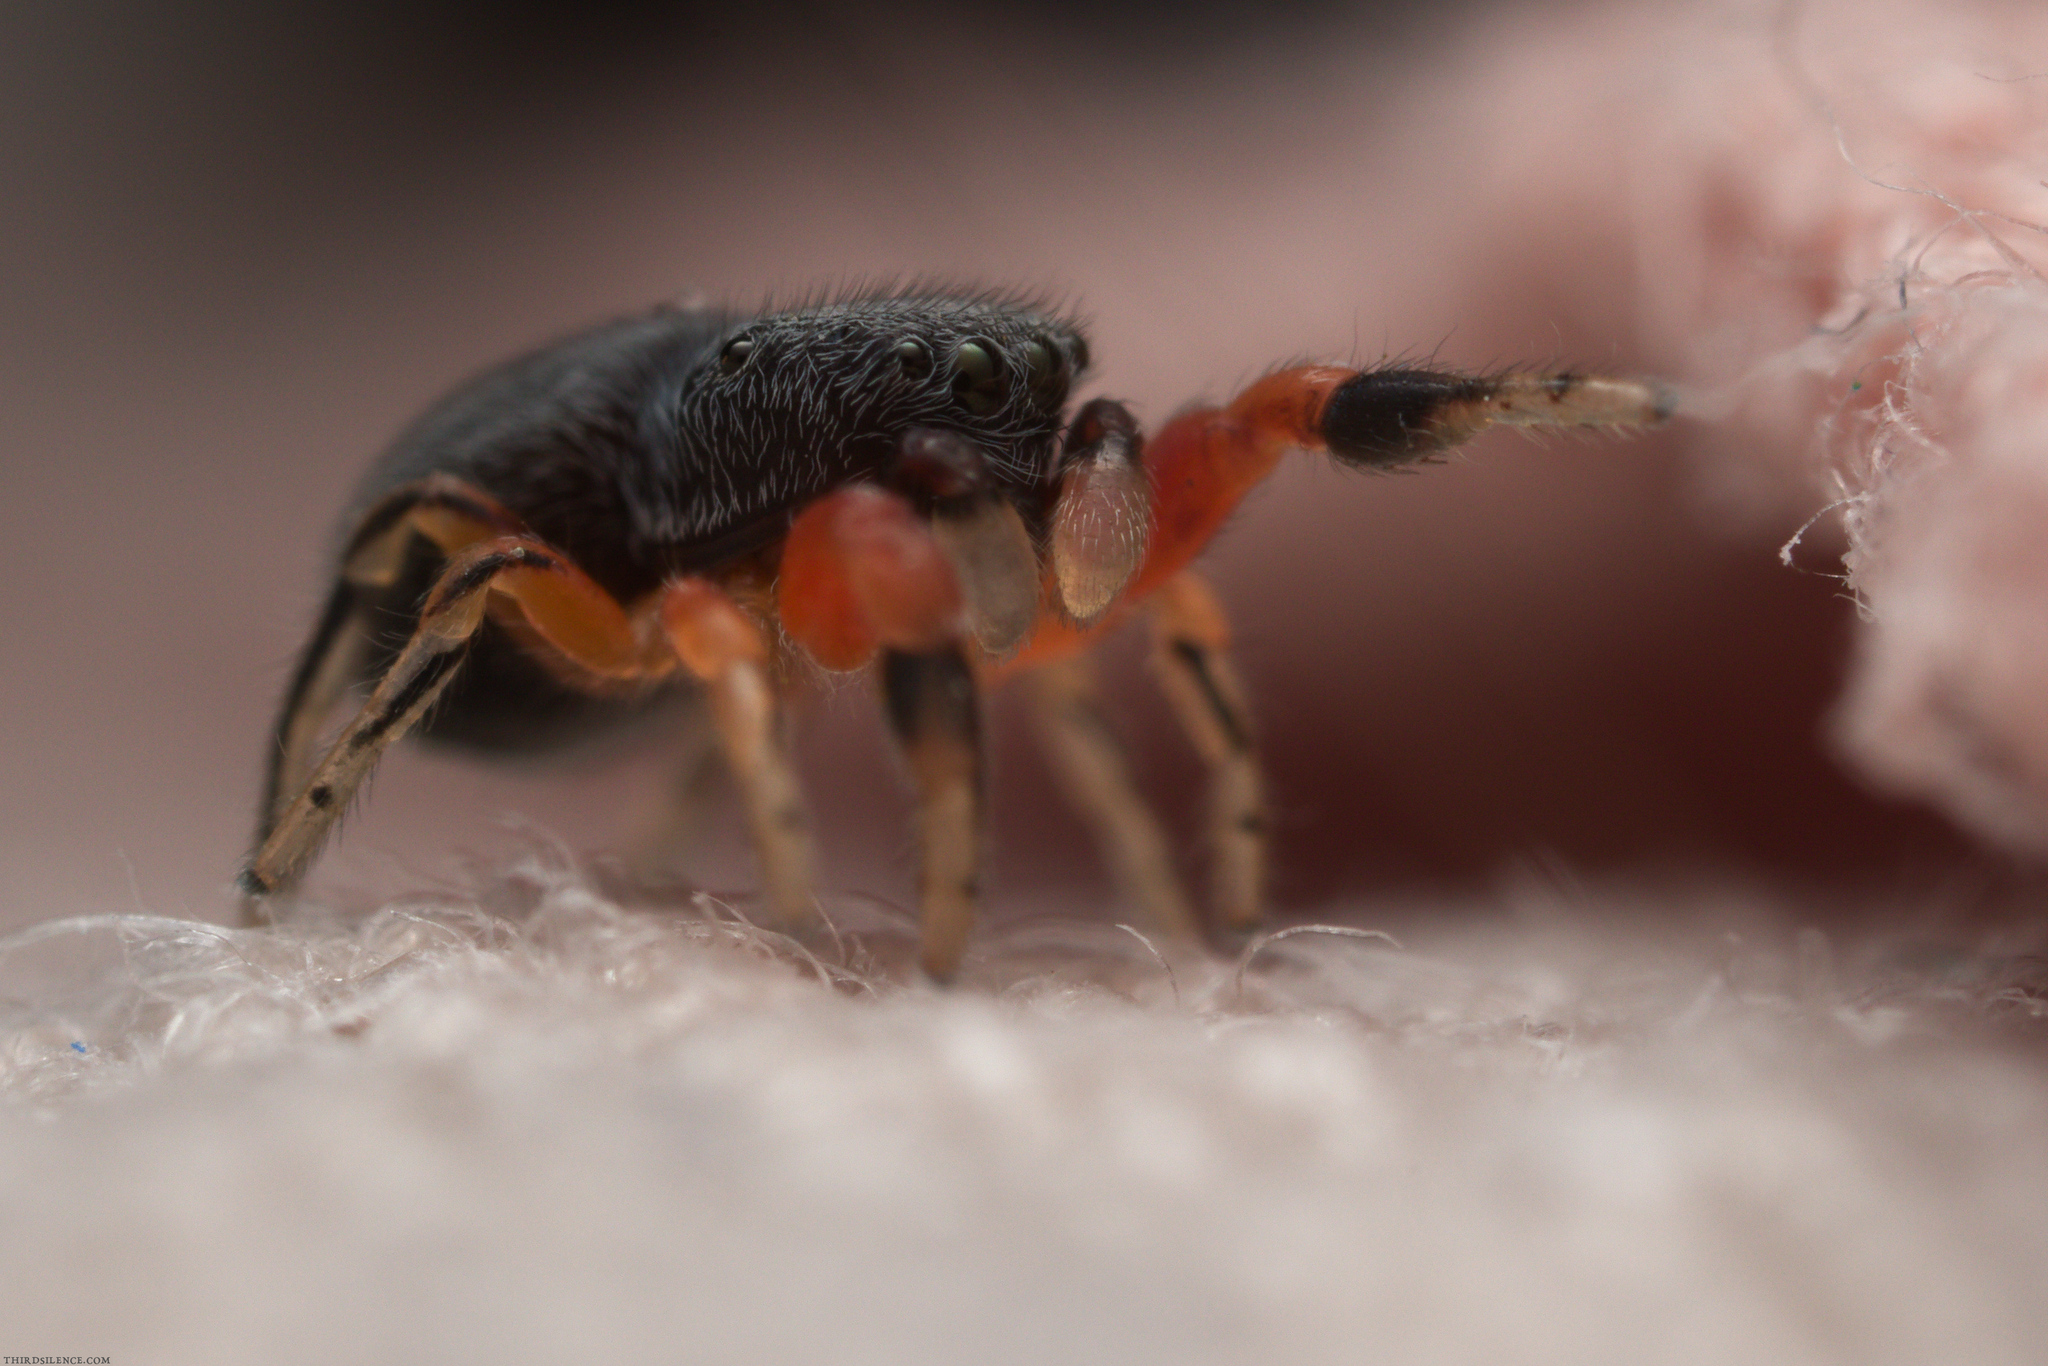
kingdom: Animalia
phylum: Arthropoda
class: Arachnida
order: Araneae
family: Salticidae
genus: Ballus
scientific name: Ballus rufipes
